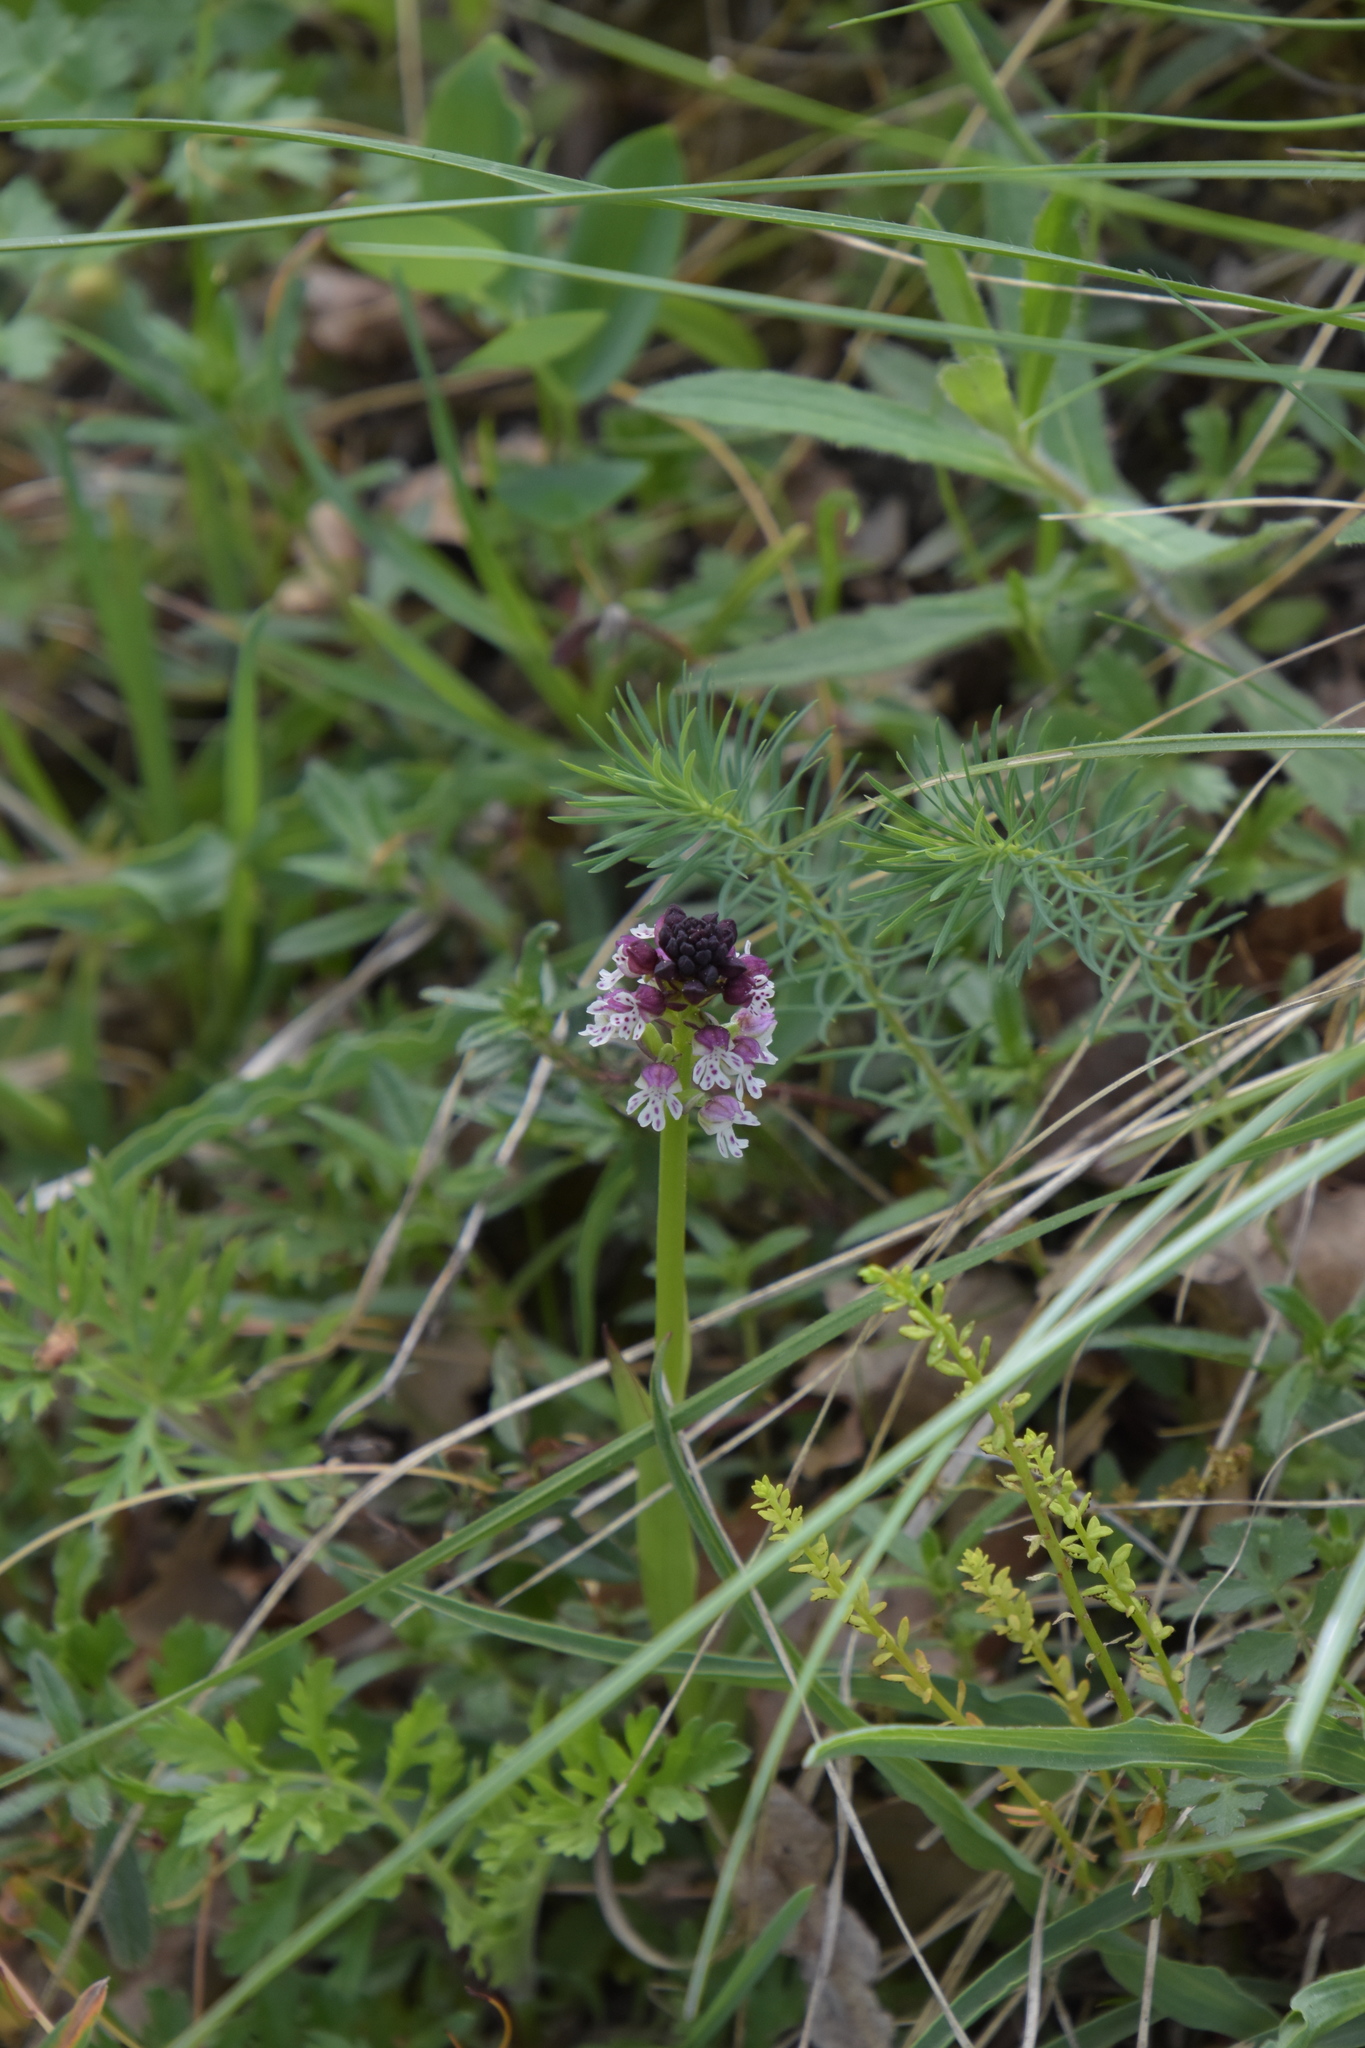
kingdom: Plantae
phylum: Tracheophyta
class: Liliopsida
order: Asparagales
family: Orchidaceae
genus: Neotinea
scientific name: Neotinea ustulata
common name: Burnt orchid
